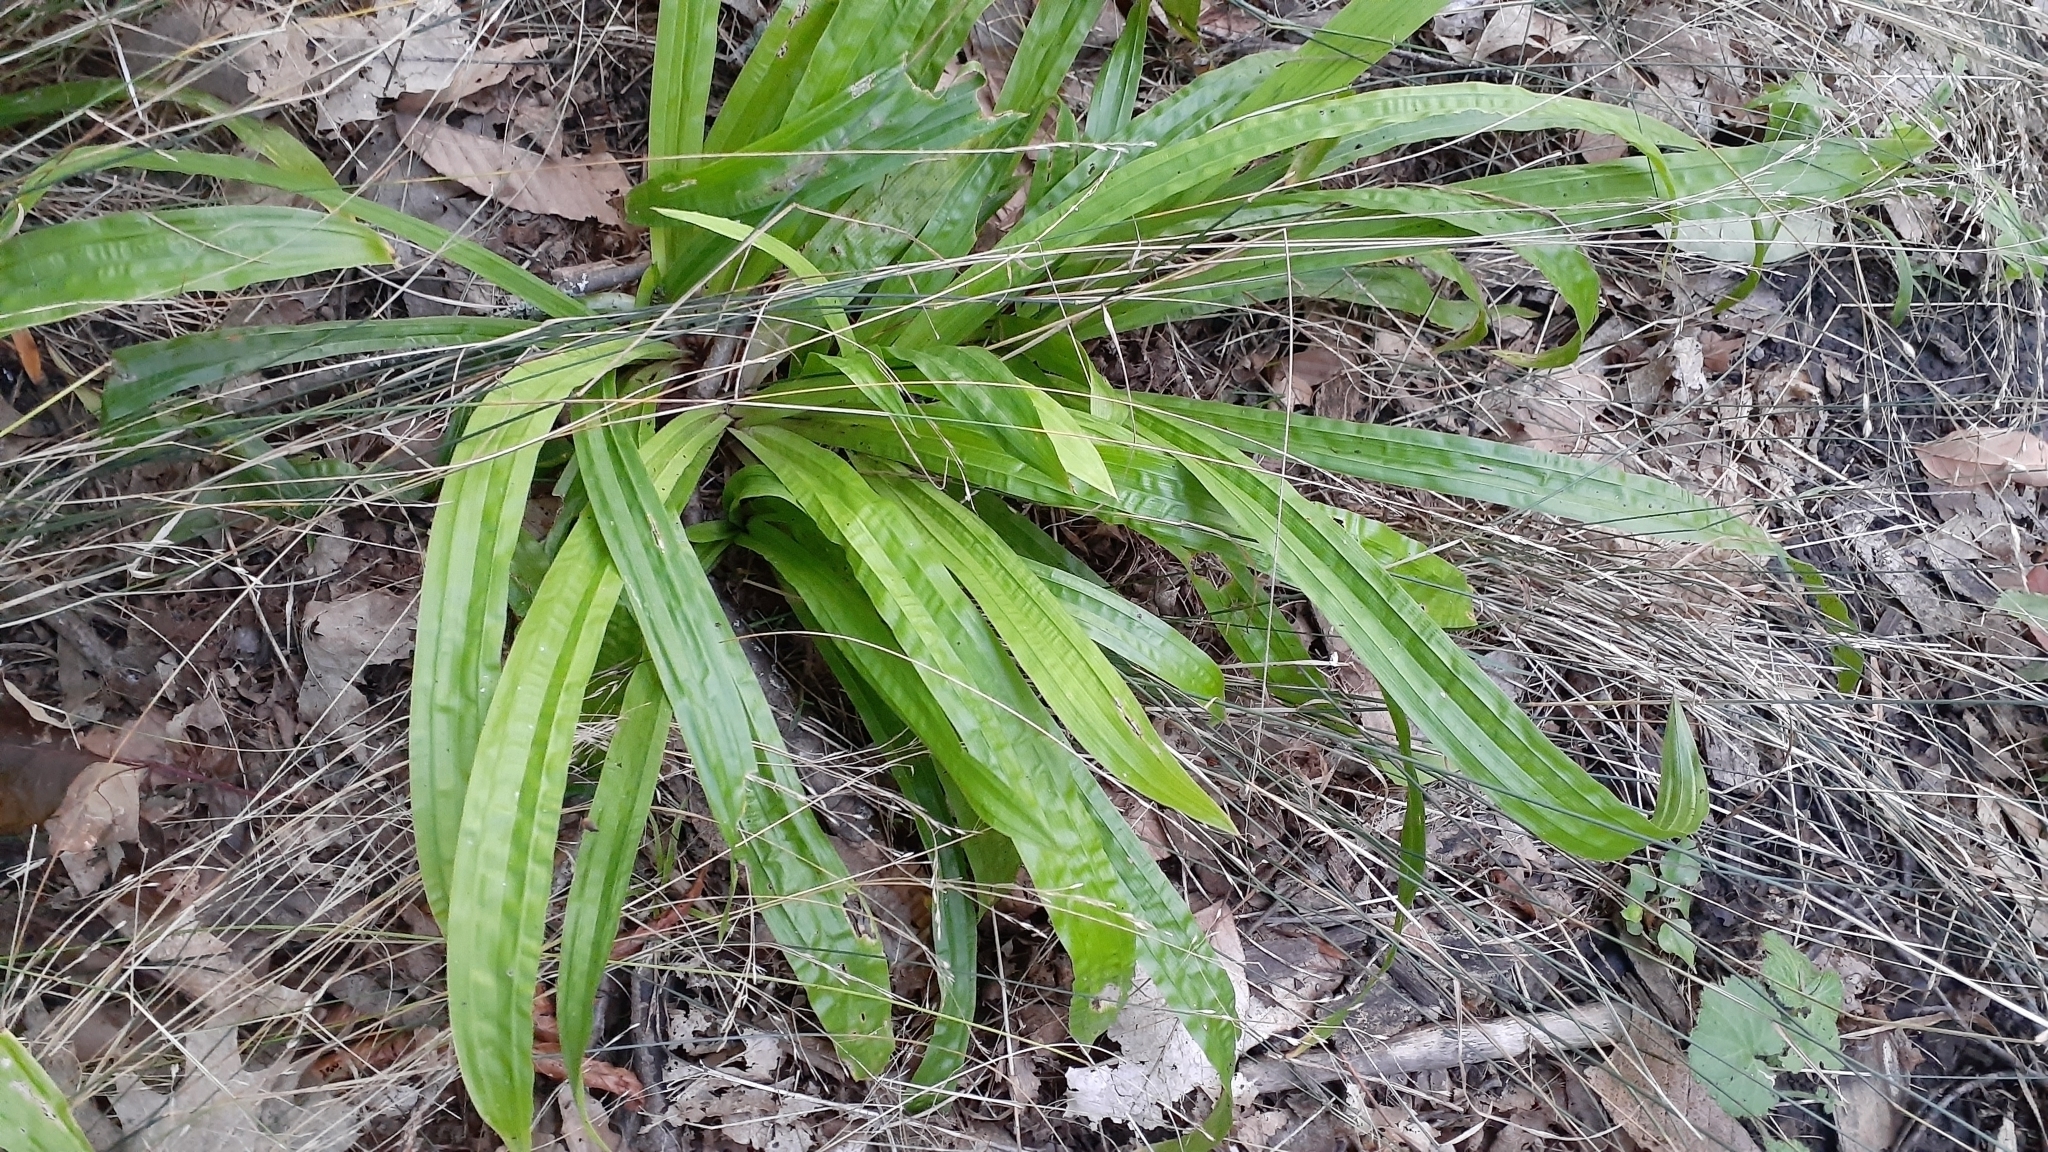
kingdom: Plantae
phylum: Tracheophyta
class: Liliopsida
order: Poales
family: Cyperaceae
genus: Carex
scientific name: Carex plantaginea
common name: Plantain-leaved sedge
